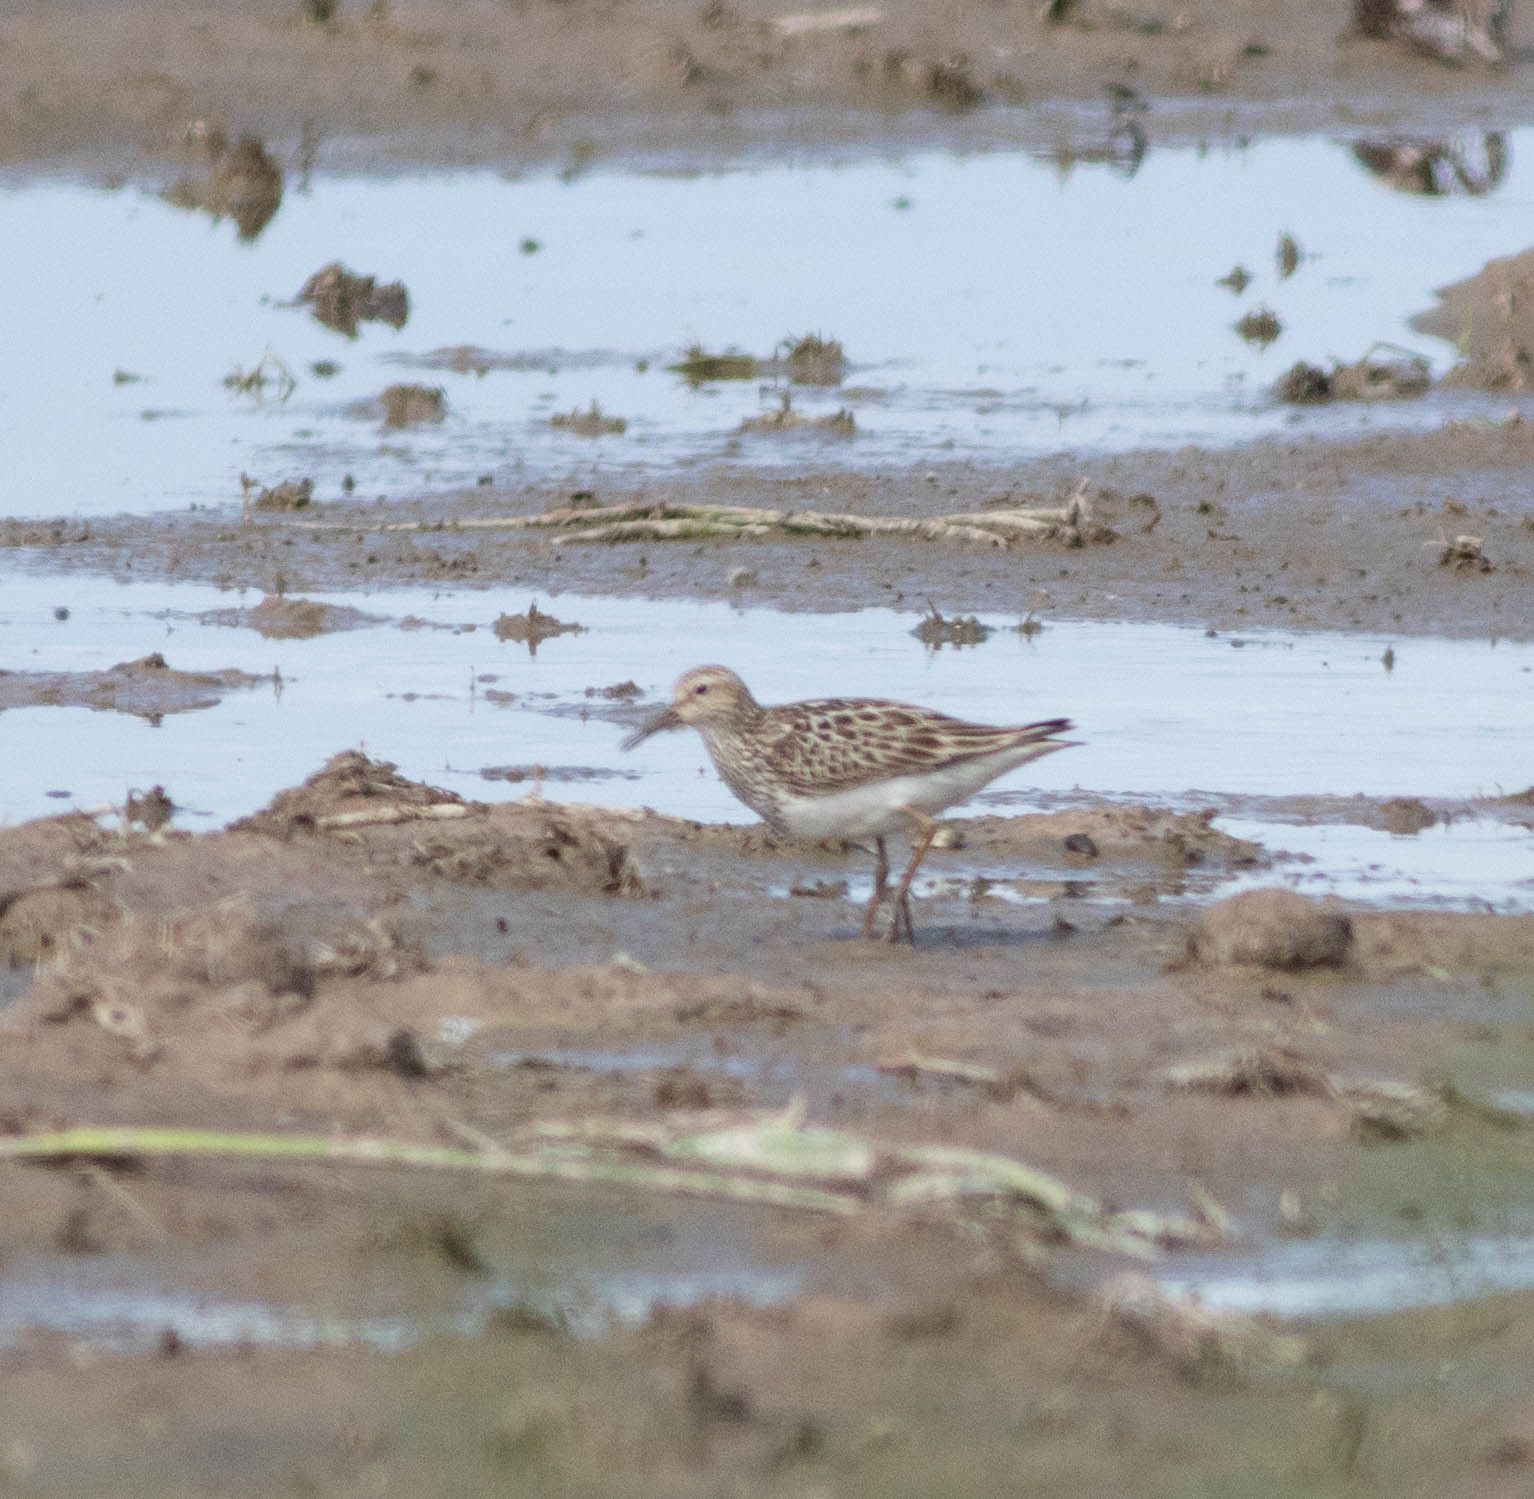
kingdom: Animalia
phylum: Chordata
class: Aves
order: Charadriiformes
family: Scolopacidae
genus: Calidris
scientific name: Calidris melanotos
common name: Pectoral sandpiper
